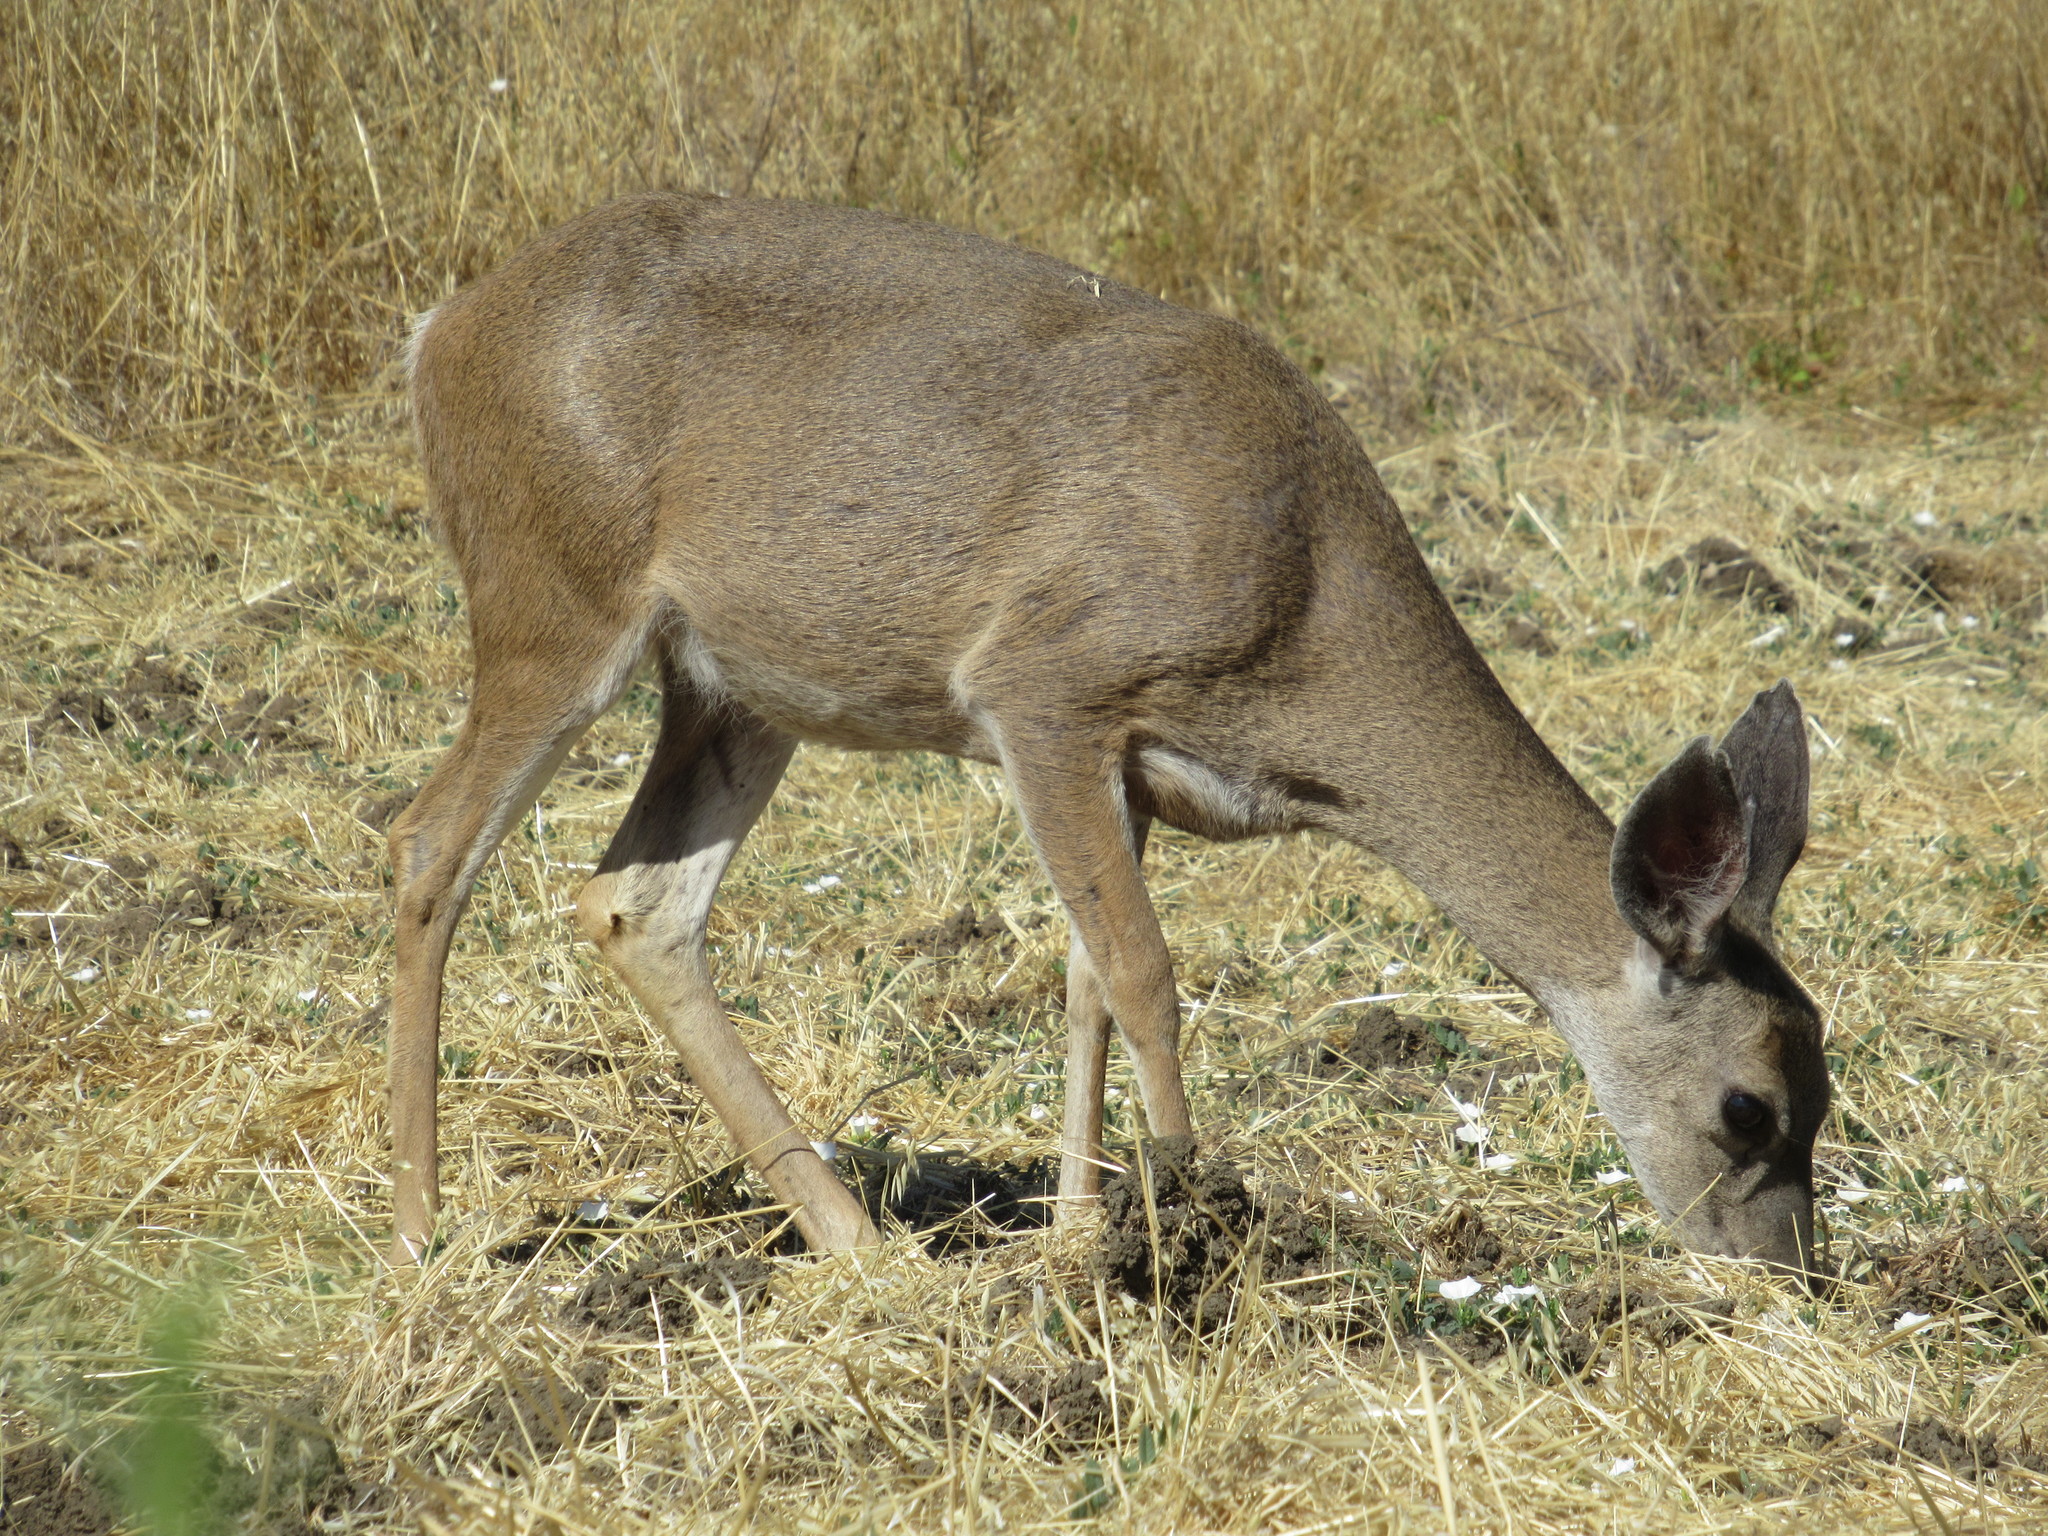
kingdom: Animalia
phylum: Chordata
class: Mammalia
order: Artiodactyla
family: Cervidae
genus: Odocoileus
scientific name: Odocoileus hemionus
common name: Mule deer
